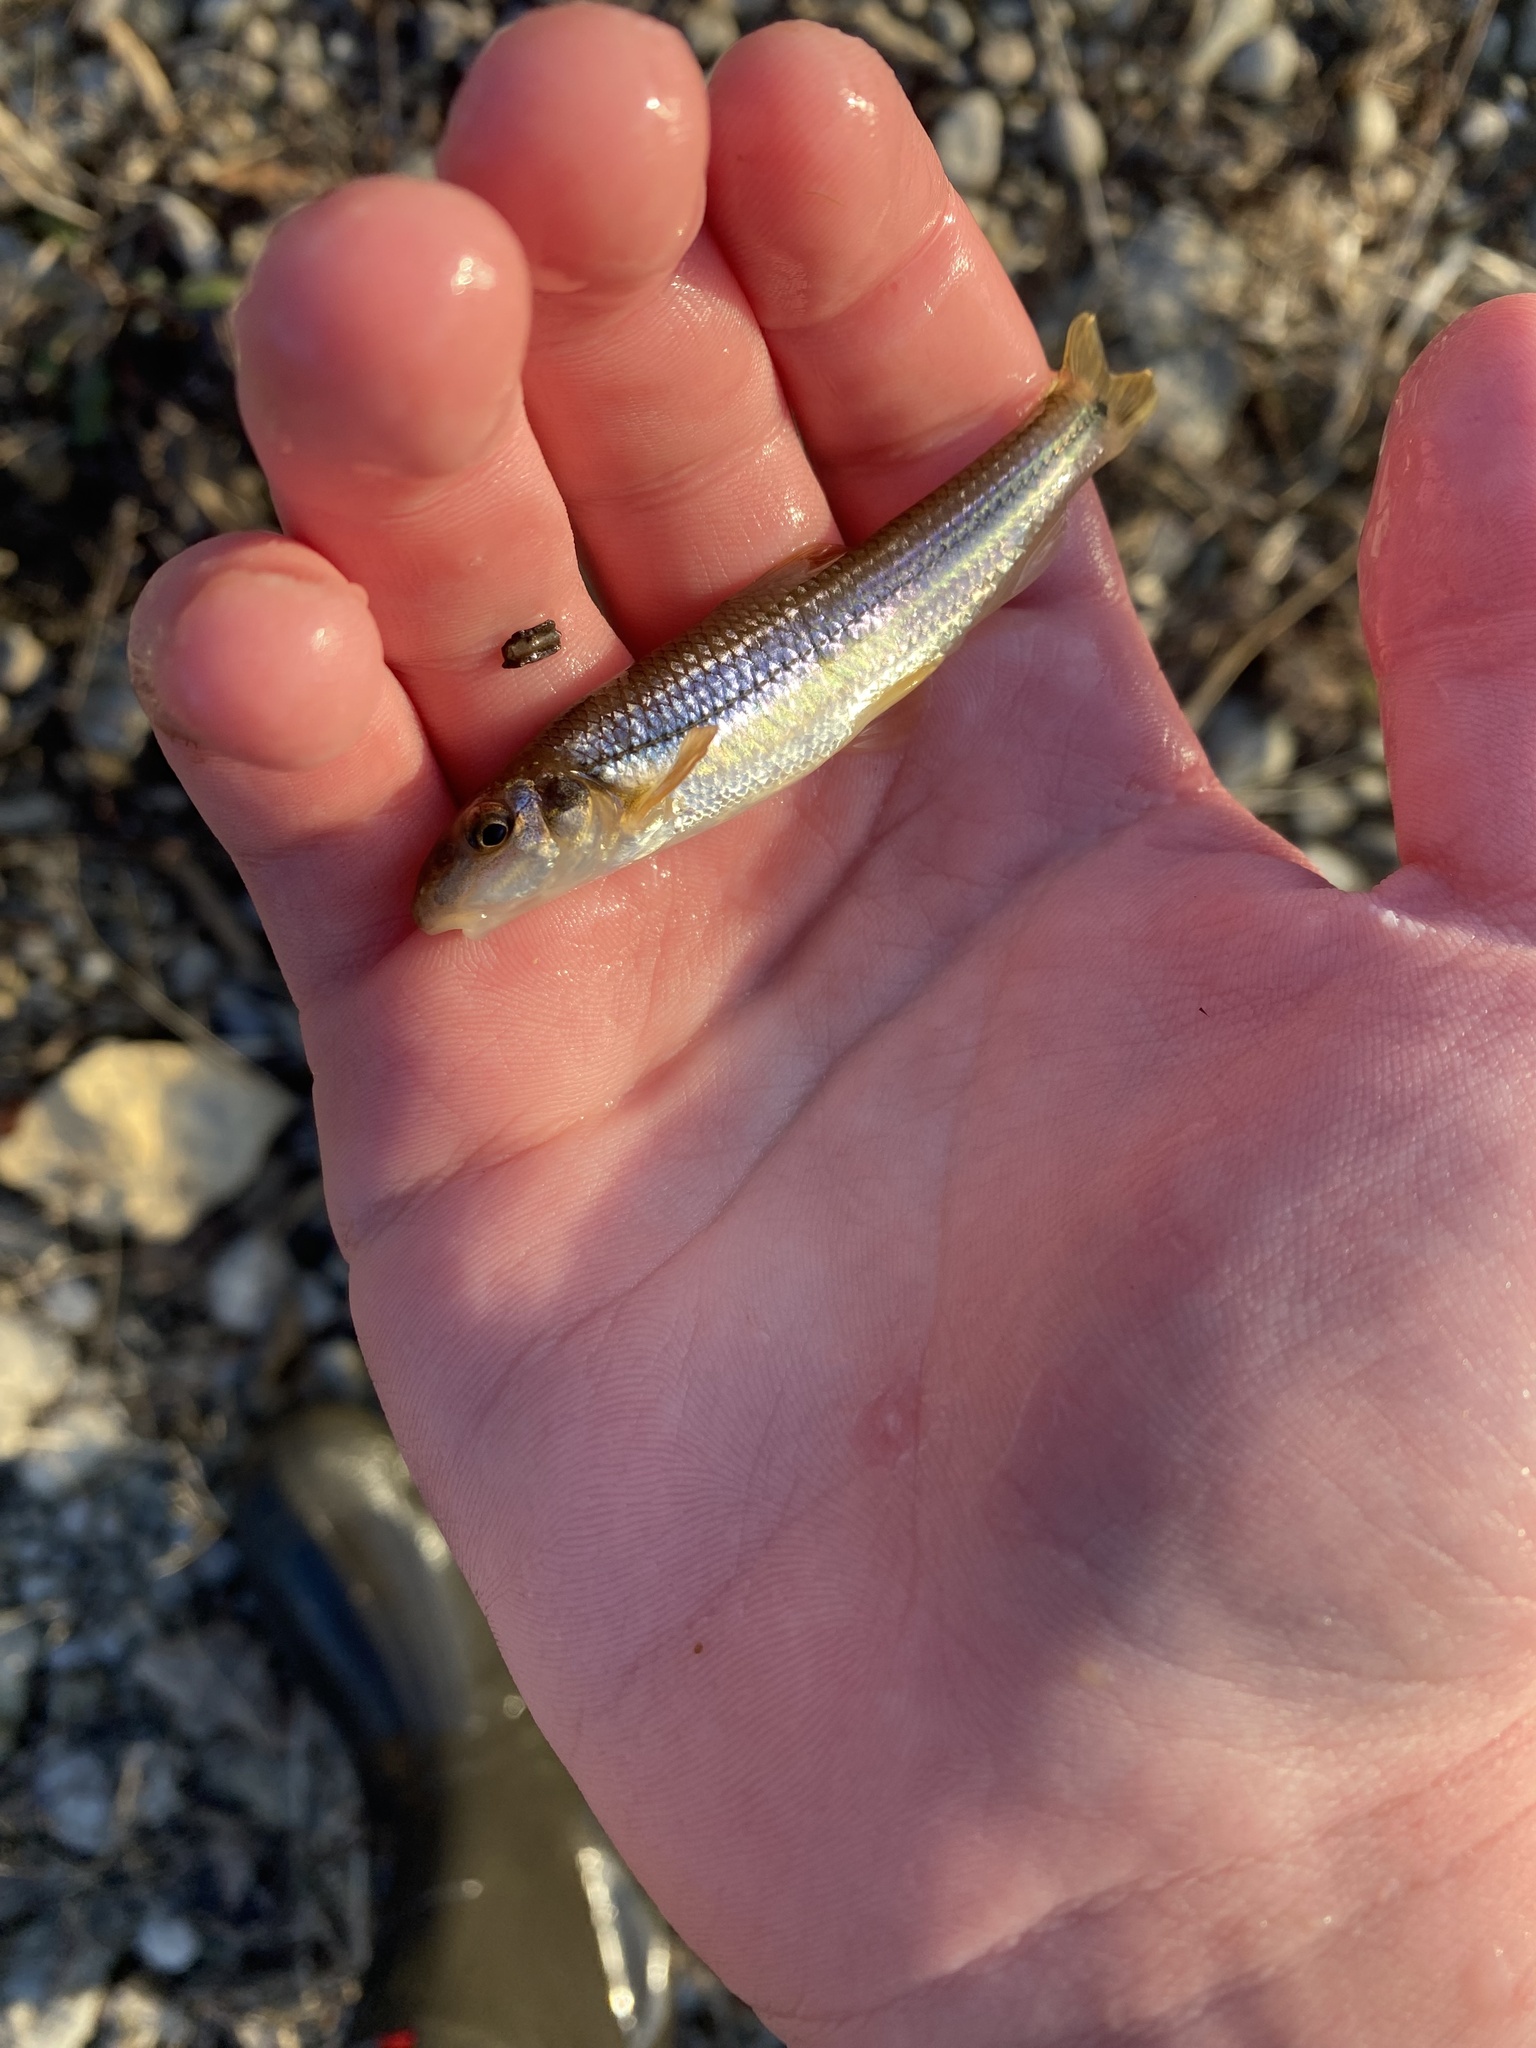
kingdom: Animalia
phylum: Chordata
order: Cypriniformes
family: Cyprinidae
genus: Phenacobius
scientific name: Phenacobius mirabilis
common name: Suckermouth minnow
